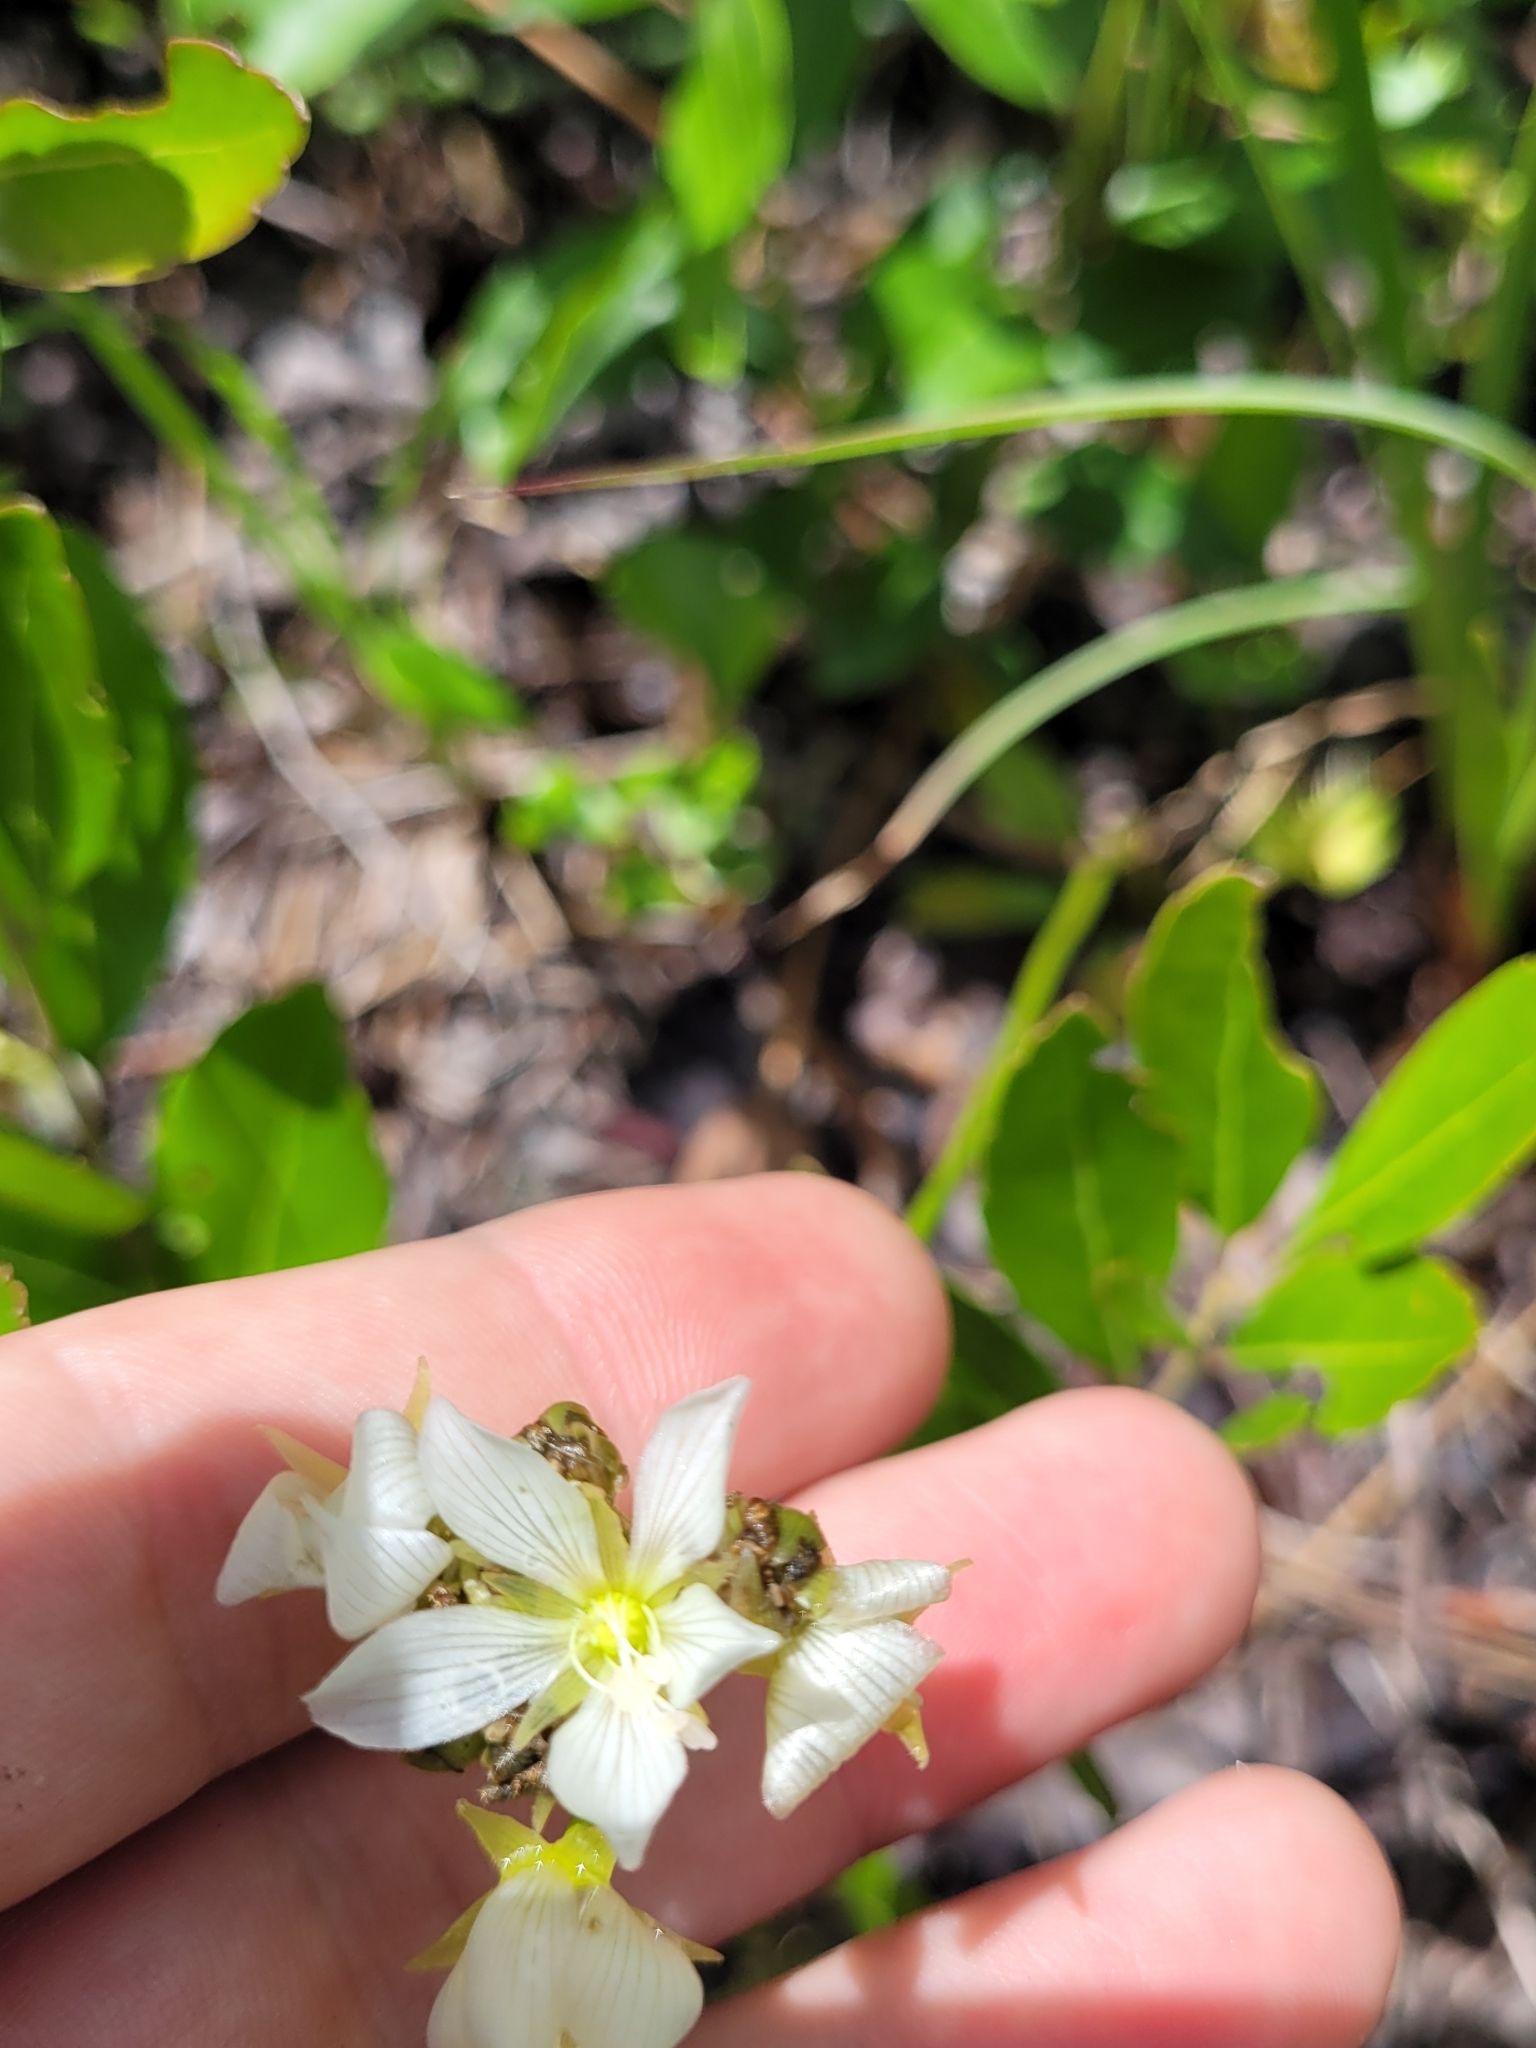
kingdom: Plantae
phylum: Tracheophyta
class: Magnoliopsida
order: Caryophyllales
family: Droseraceae
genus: Dionaea
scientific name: Dionaea muscipula
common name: Venus flytrap
